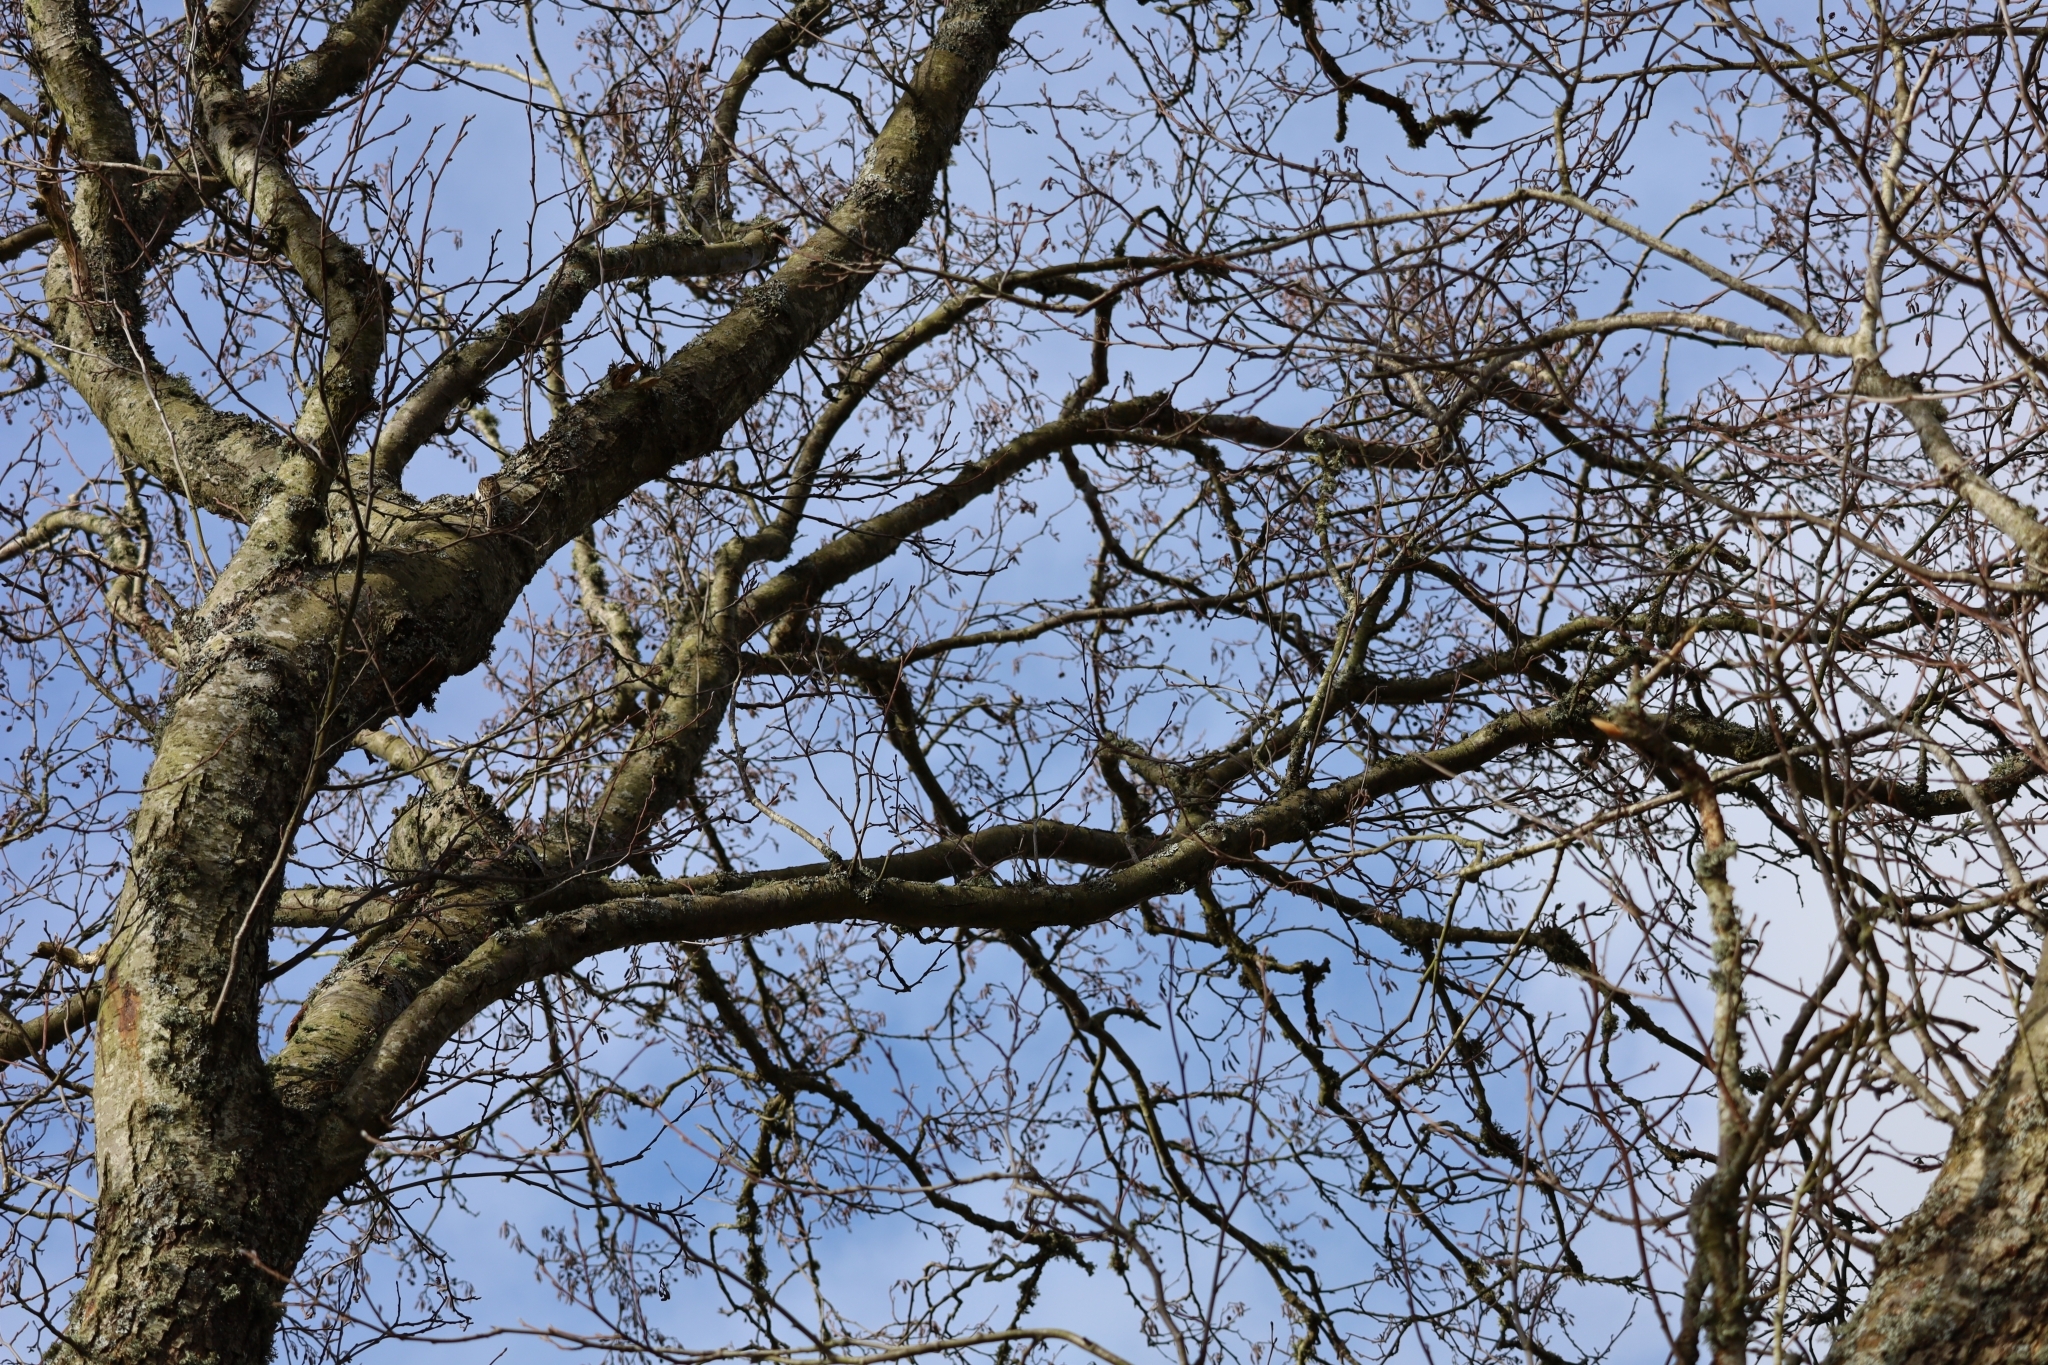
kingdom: Animalia
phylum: Chordata
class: Aves
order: Passeriformes
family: Certhiidae
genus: Certhia
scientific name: Certhia familiaris
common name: Eurasian treecreeper
